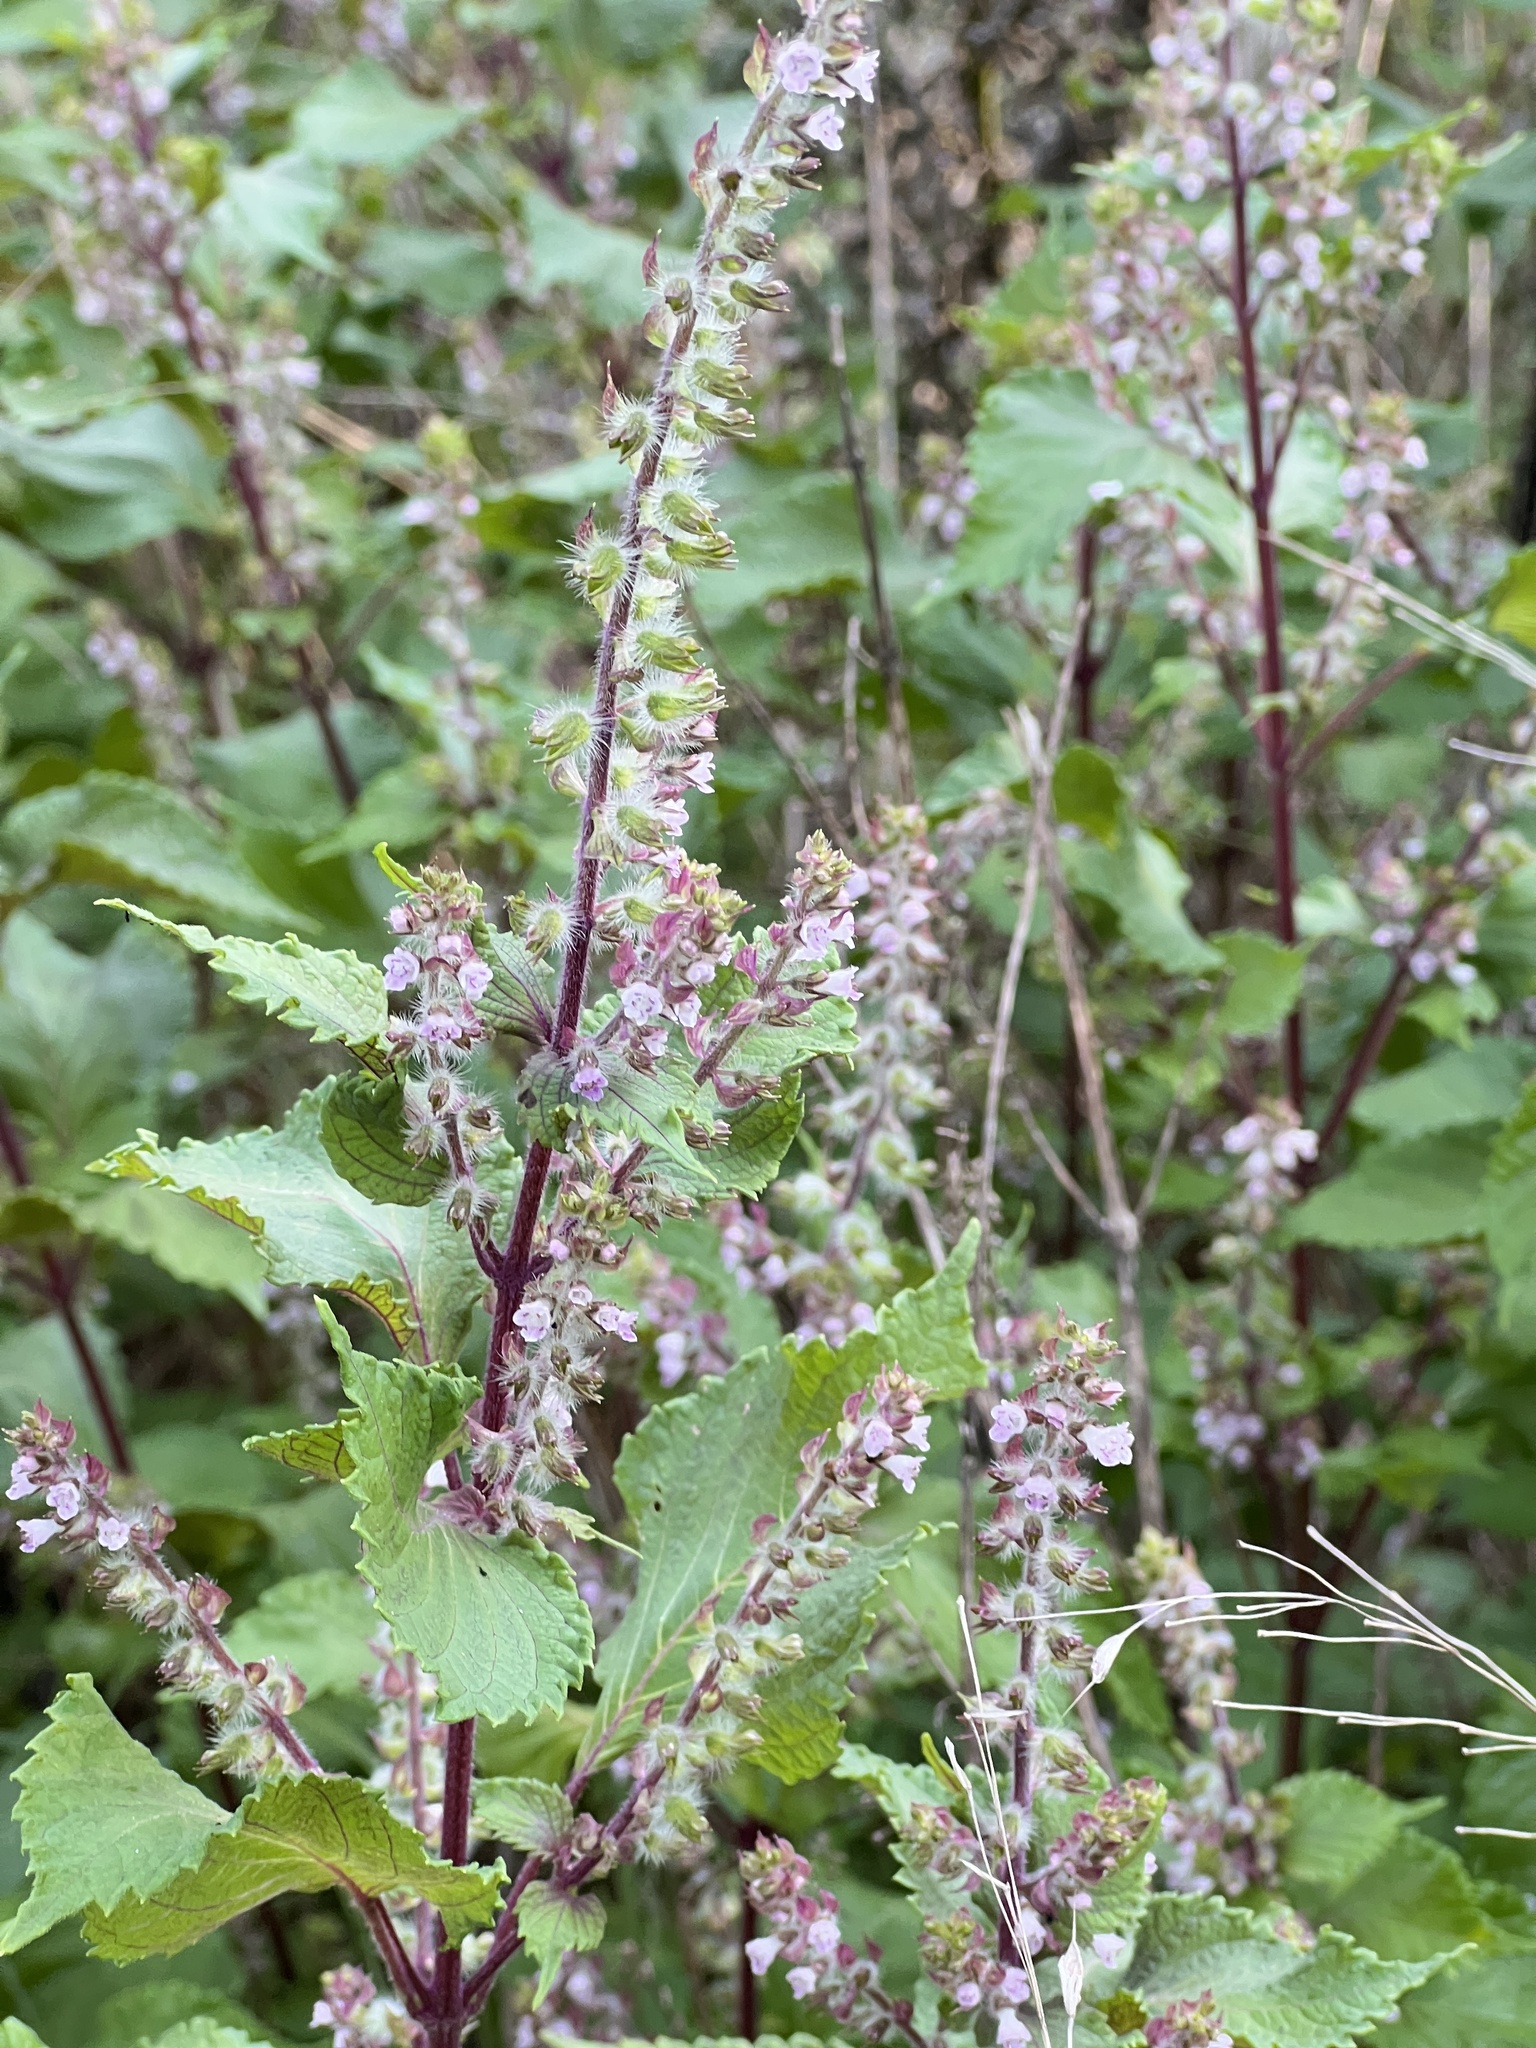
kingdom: Plantae
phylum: Tracheophyta
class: Magnoliopsida
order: Lamiales
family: Lamiaceae
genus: Perilla
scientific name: Perilla frutescens
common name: Perilla
